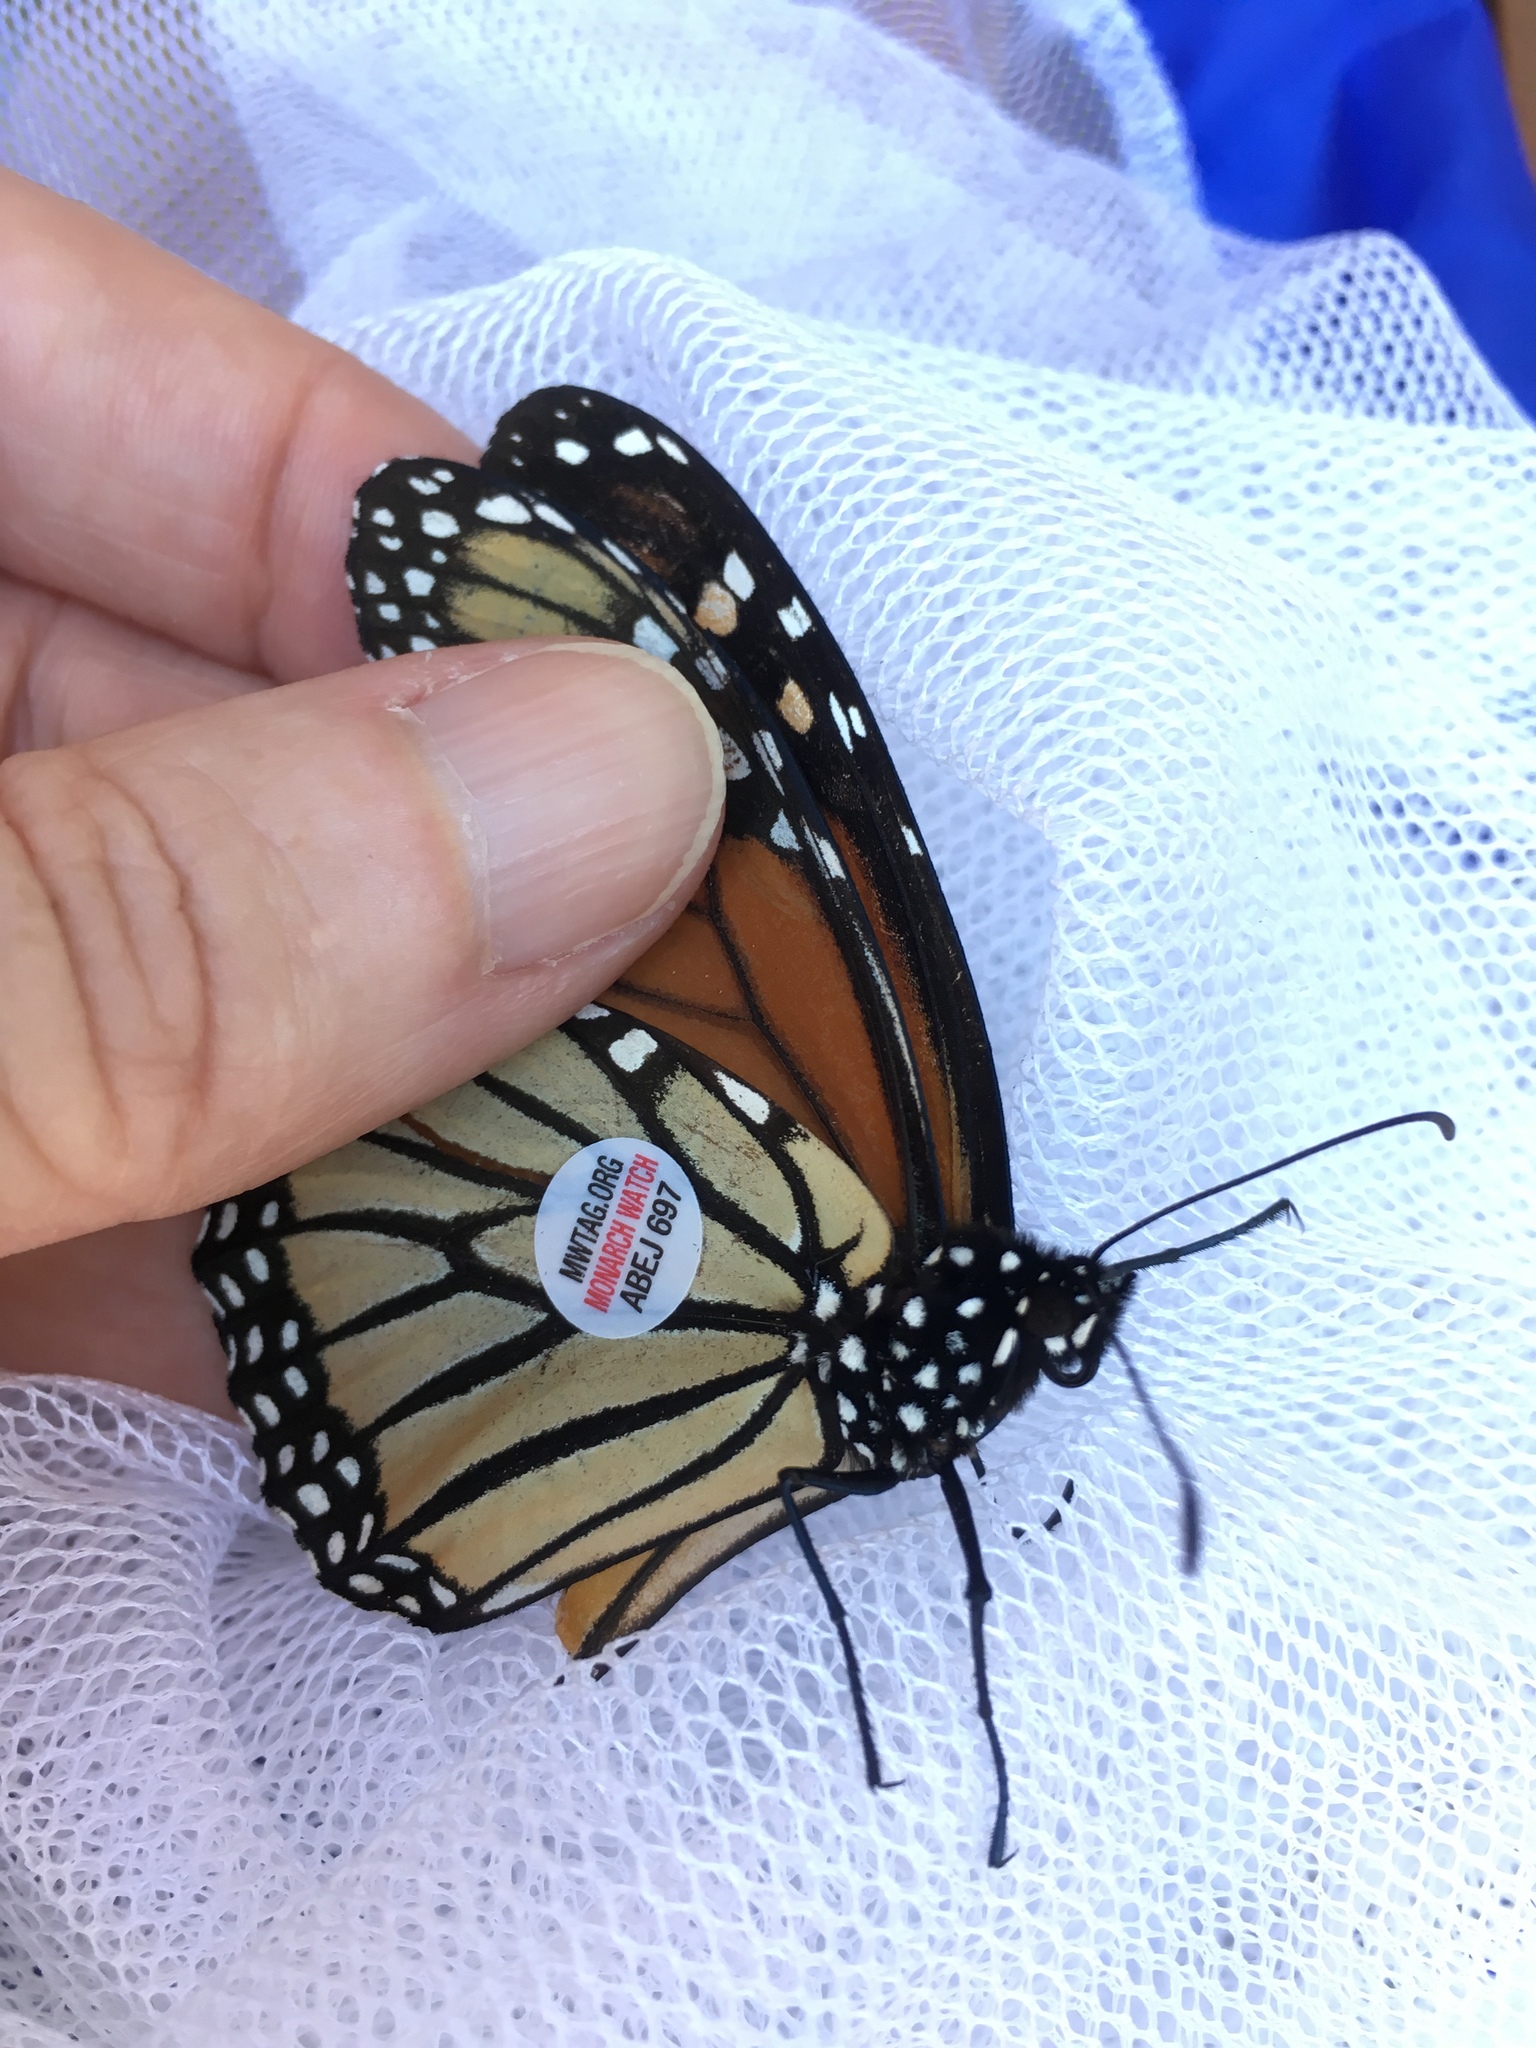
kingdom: Animalia
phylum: Arthropoda
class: Insecta
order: Lepidoptera
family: Nymphalidae
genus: Danaus
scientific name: Danaus plexippus
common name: Monarch
